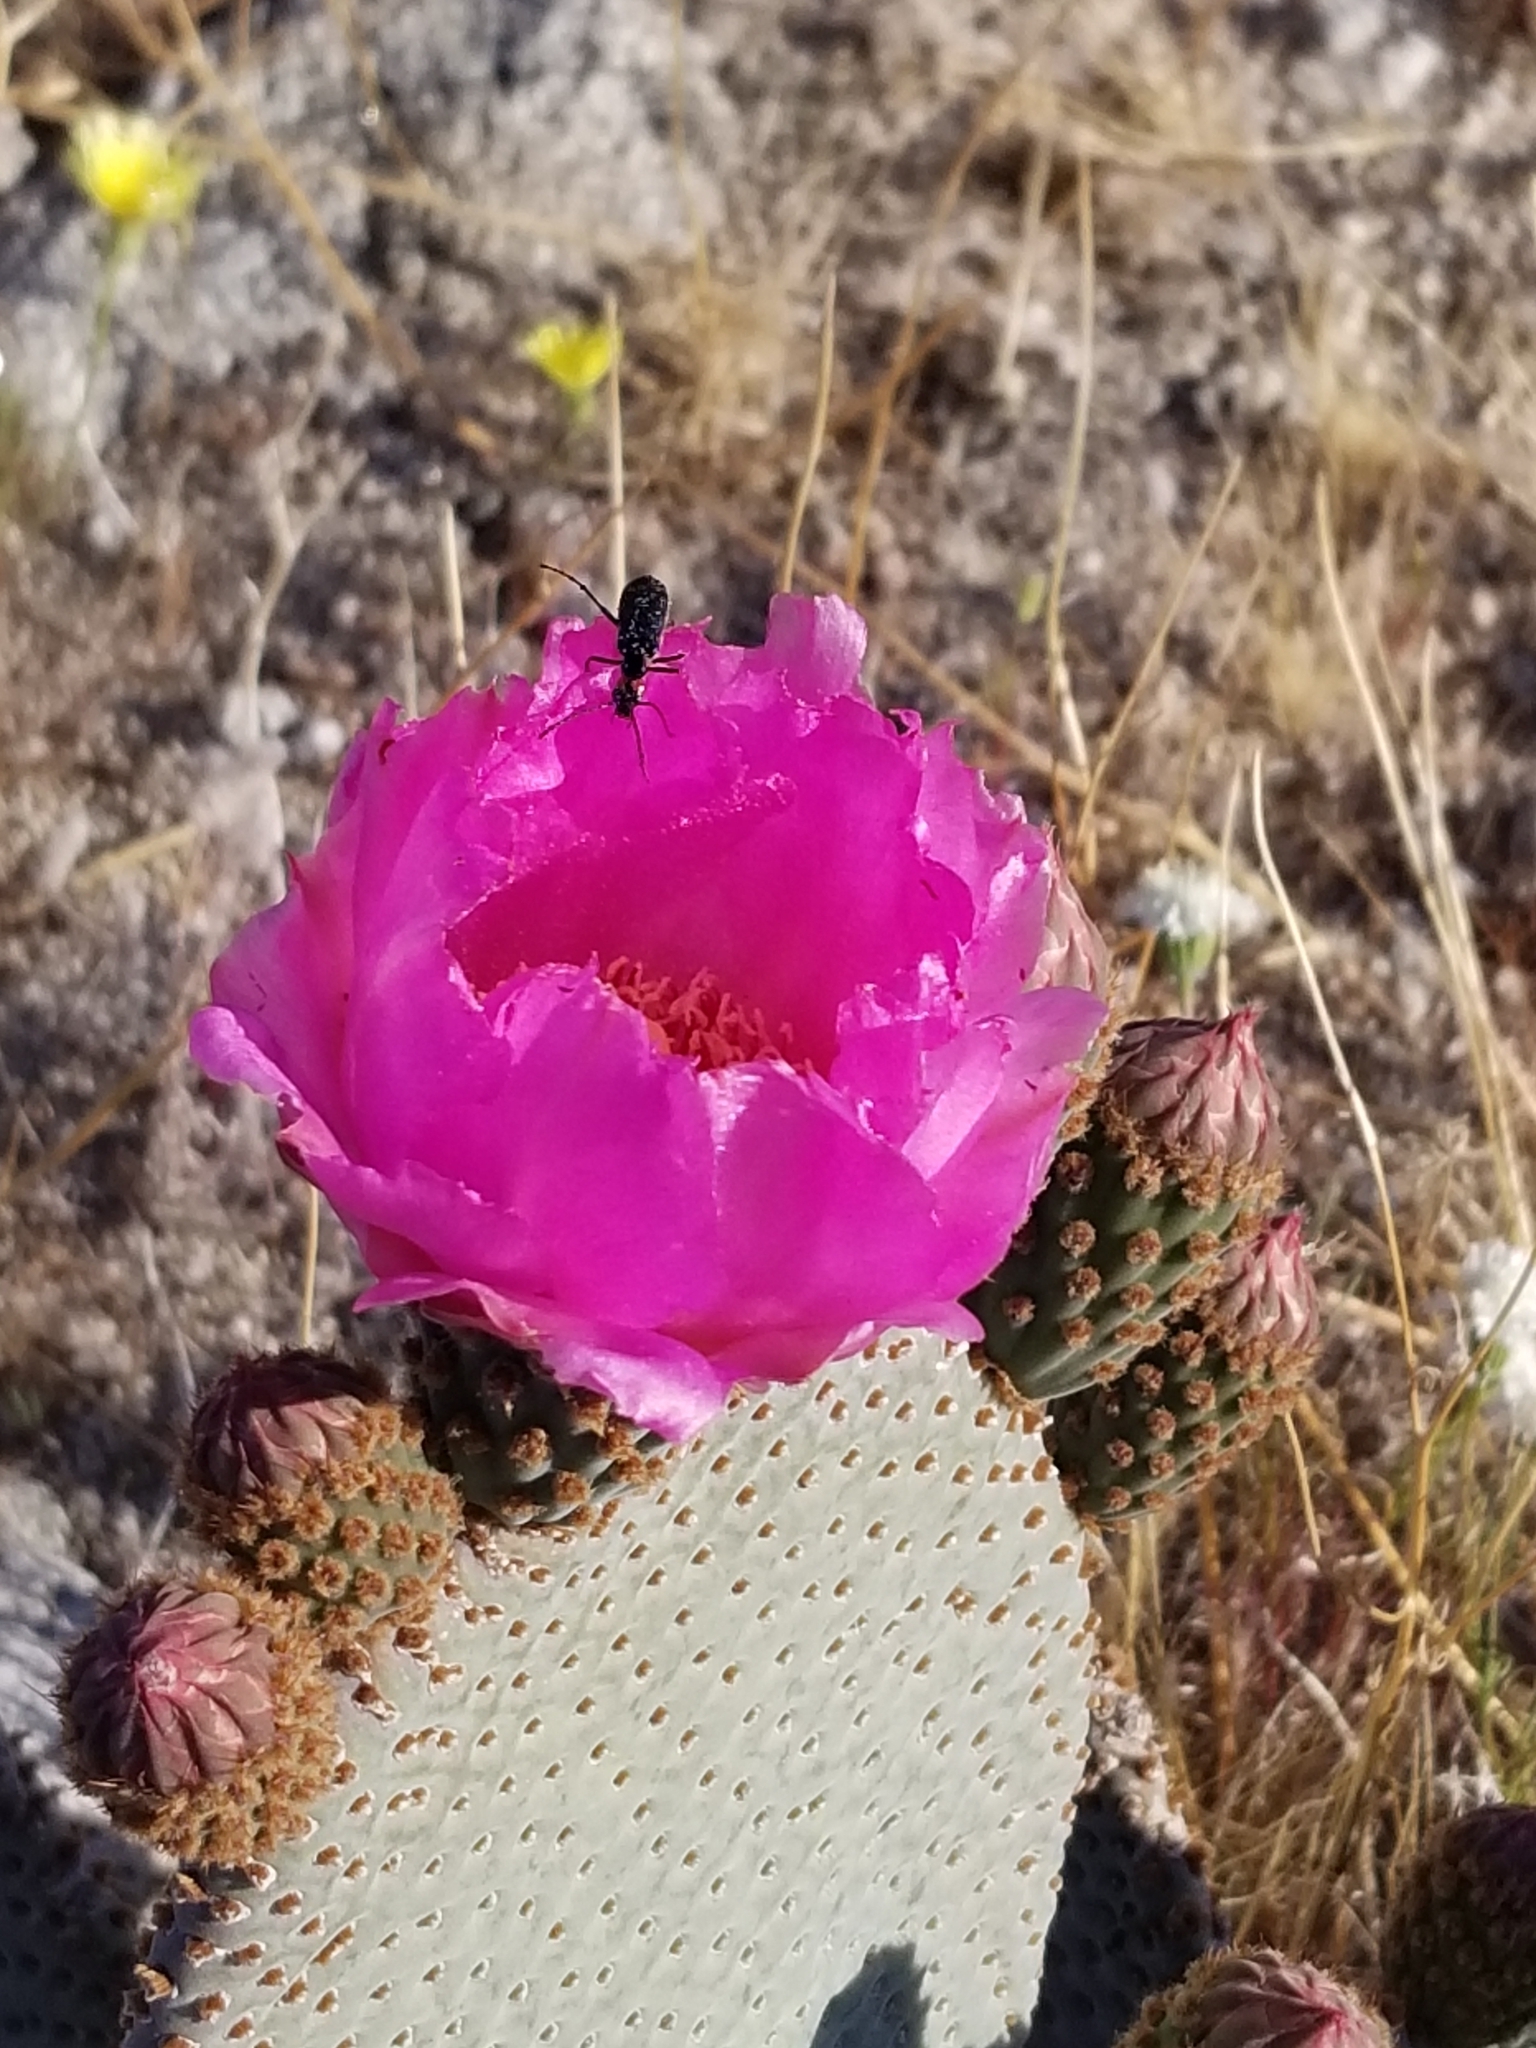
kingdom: Plantae
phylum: Tracheophyta
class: Magnoliopsida
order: Caryophyllales
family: Cactaceae
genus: Opuntia
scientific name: Opuntia basilaris
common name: Beavertail prickly-pear
